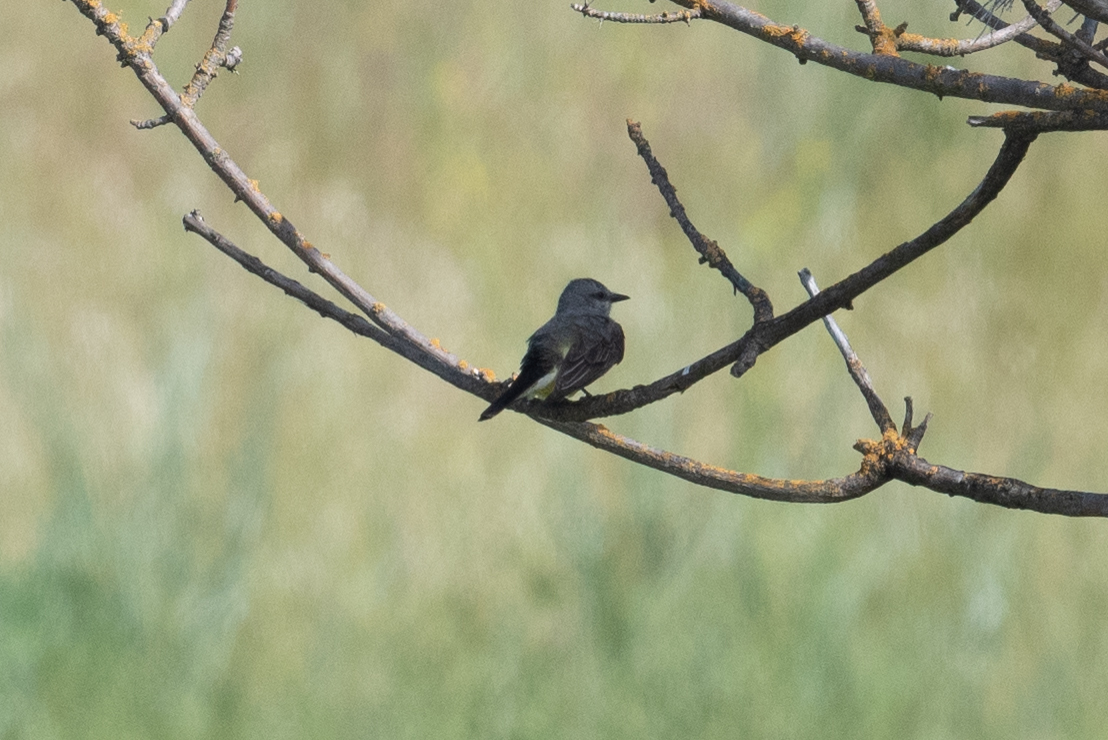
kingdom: Animalia
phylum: Chordata
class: Aves
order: Passeriformes
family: Tyrannidae
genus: Tyrannus
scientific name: Tyrannus verticalis
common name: Western kingbird
